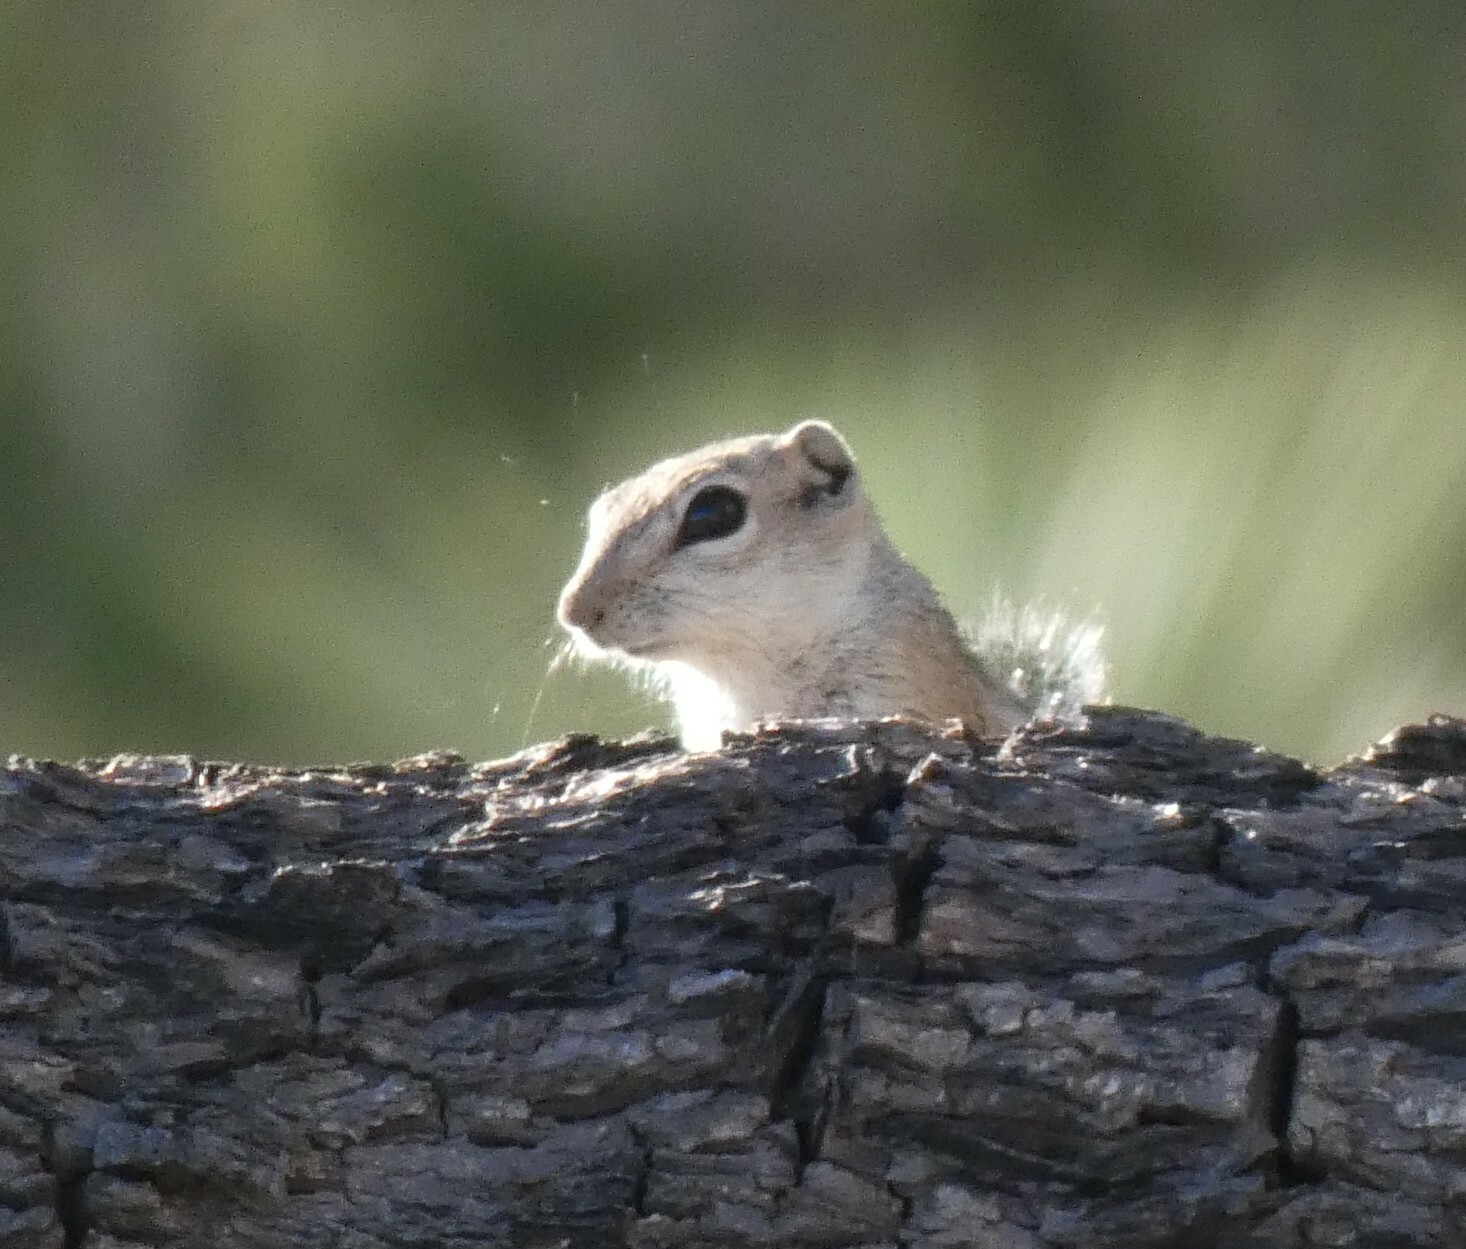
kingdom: Animalia
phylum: Chordata
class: Mammalia
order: Rodentia
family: Sciuridae
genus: Ammospermophilus
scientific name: Ammospermophilus leucurus
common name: White-tailed antelope squirrel
